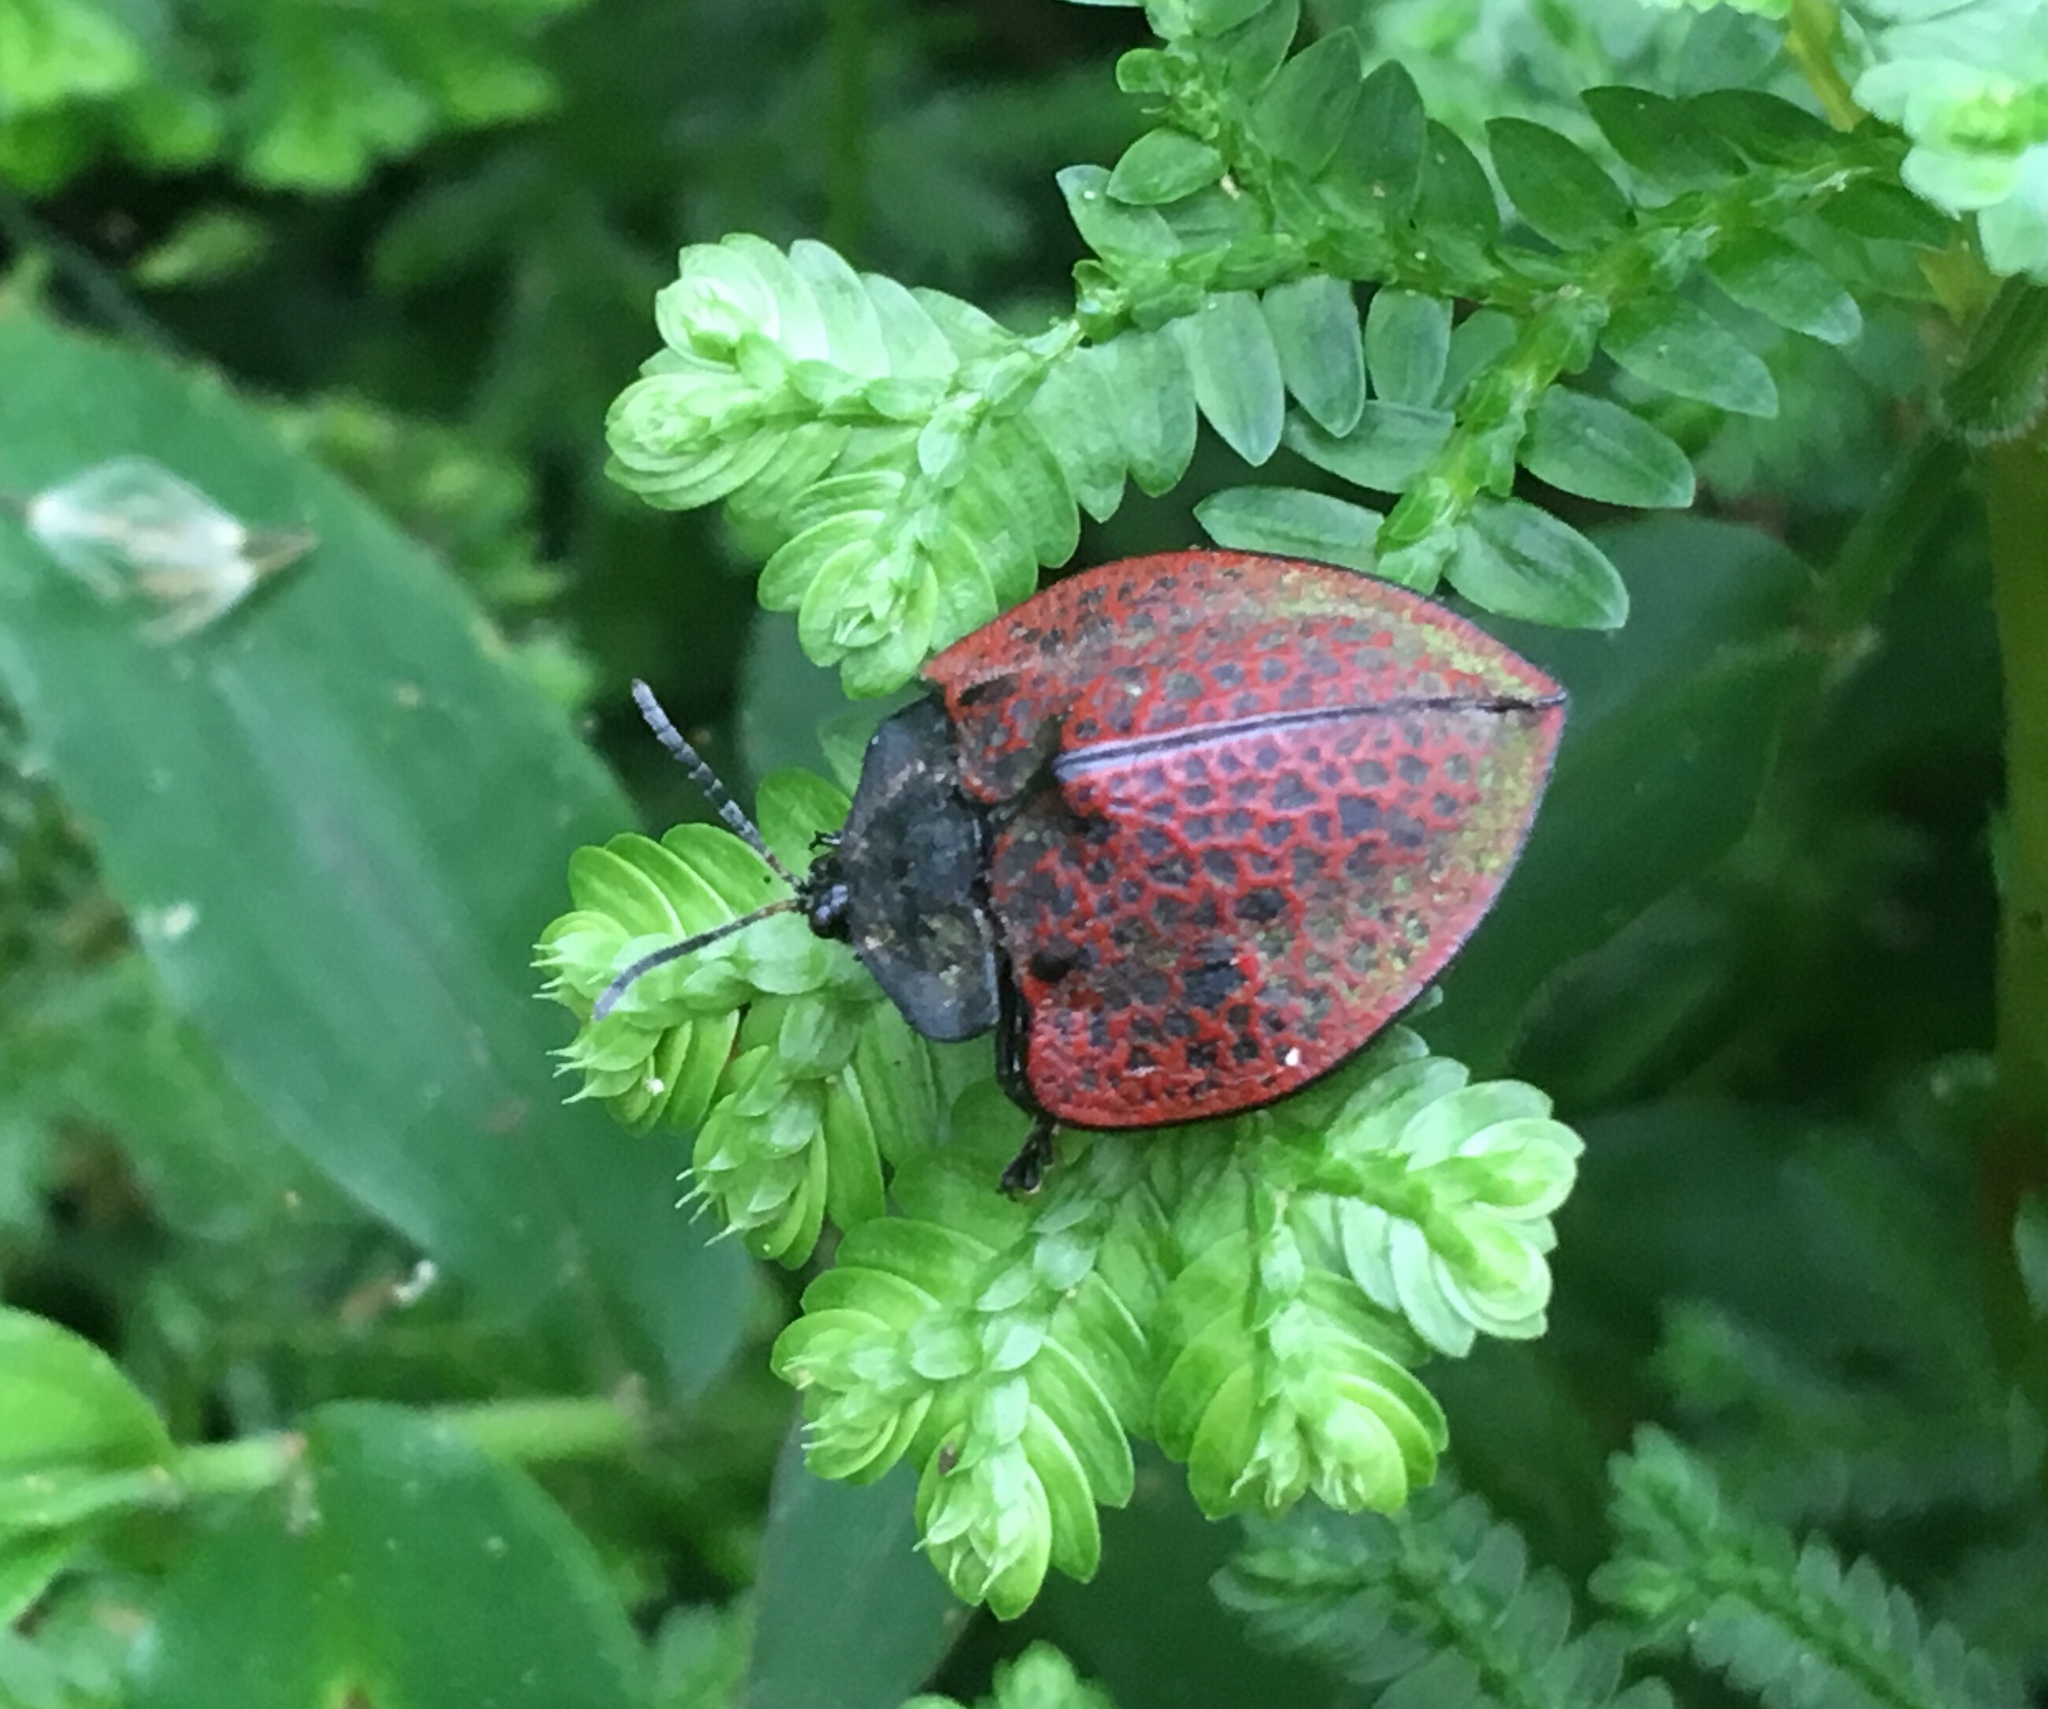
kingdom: Animalia
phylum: Arthropoda
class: Insecta
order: Coleoptera
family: Chrysomelidae
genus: Cyrtonota
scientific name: Cyrtonota textilis
